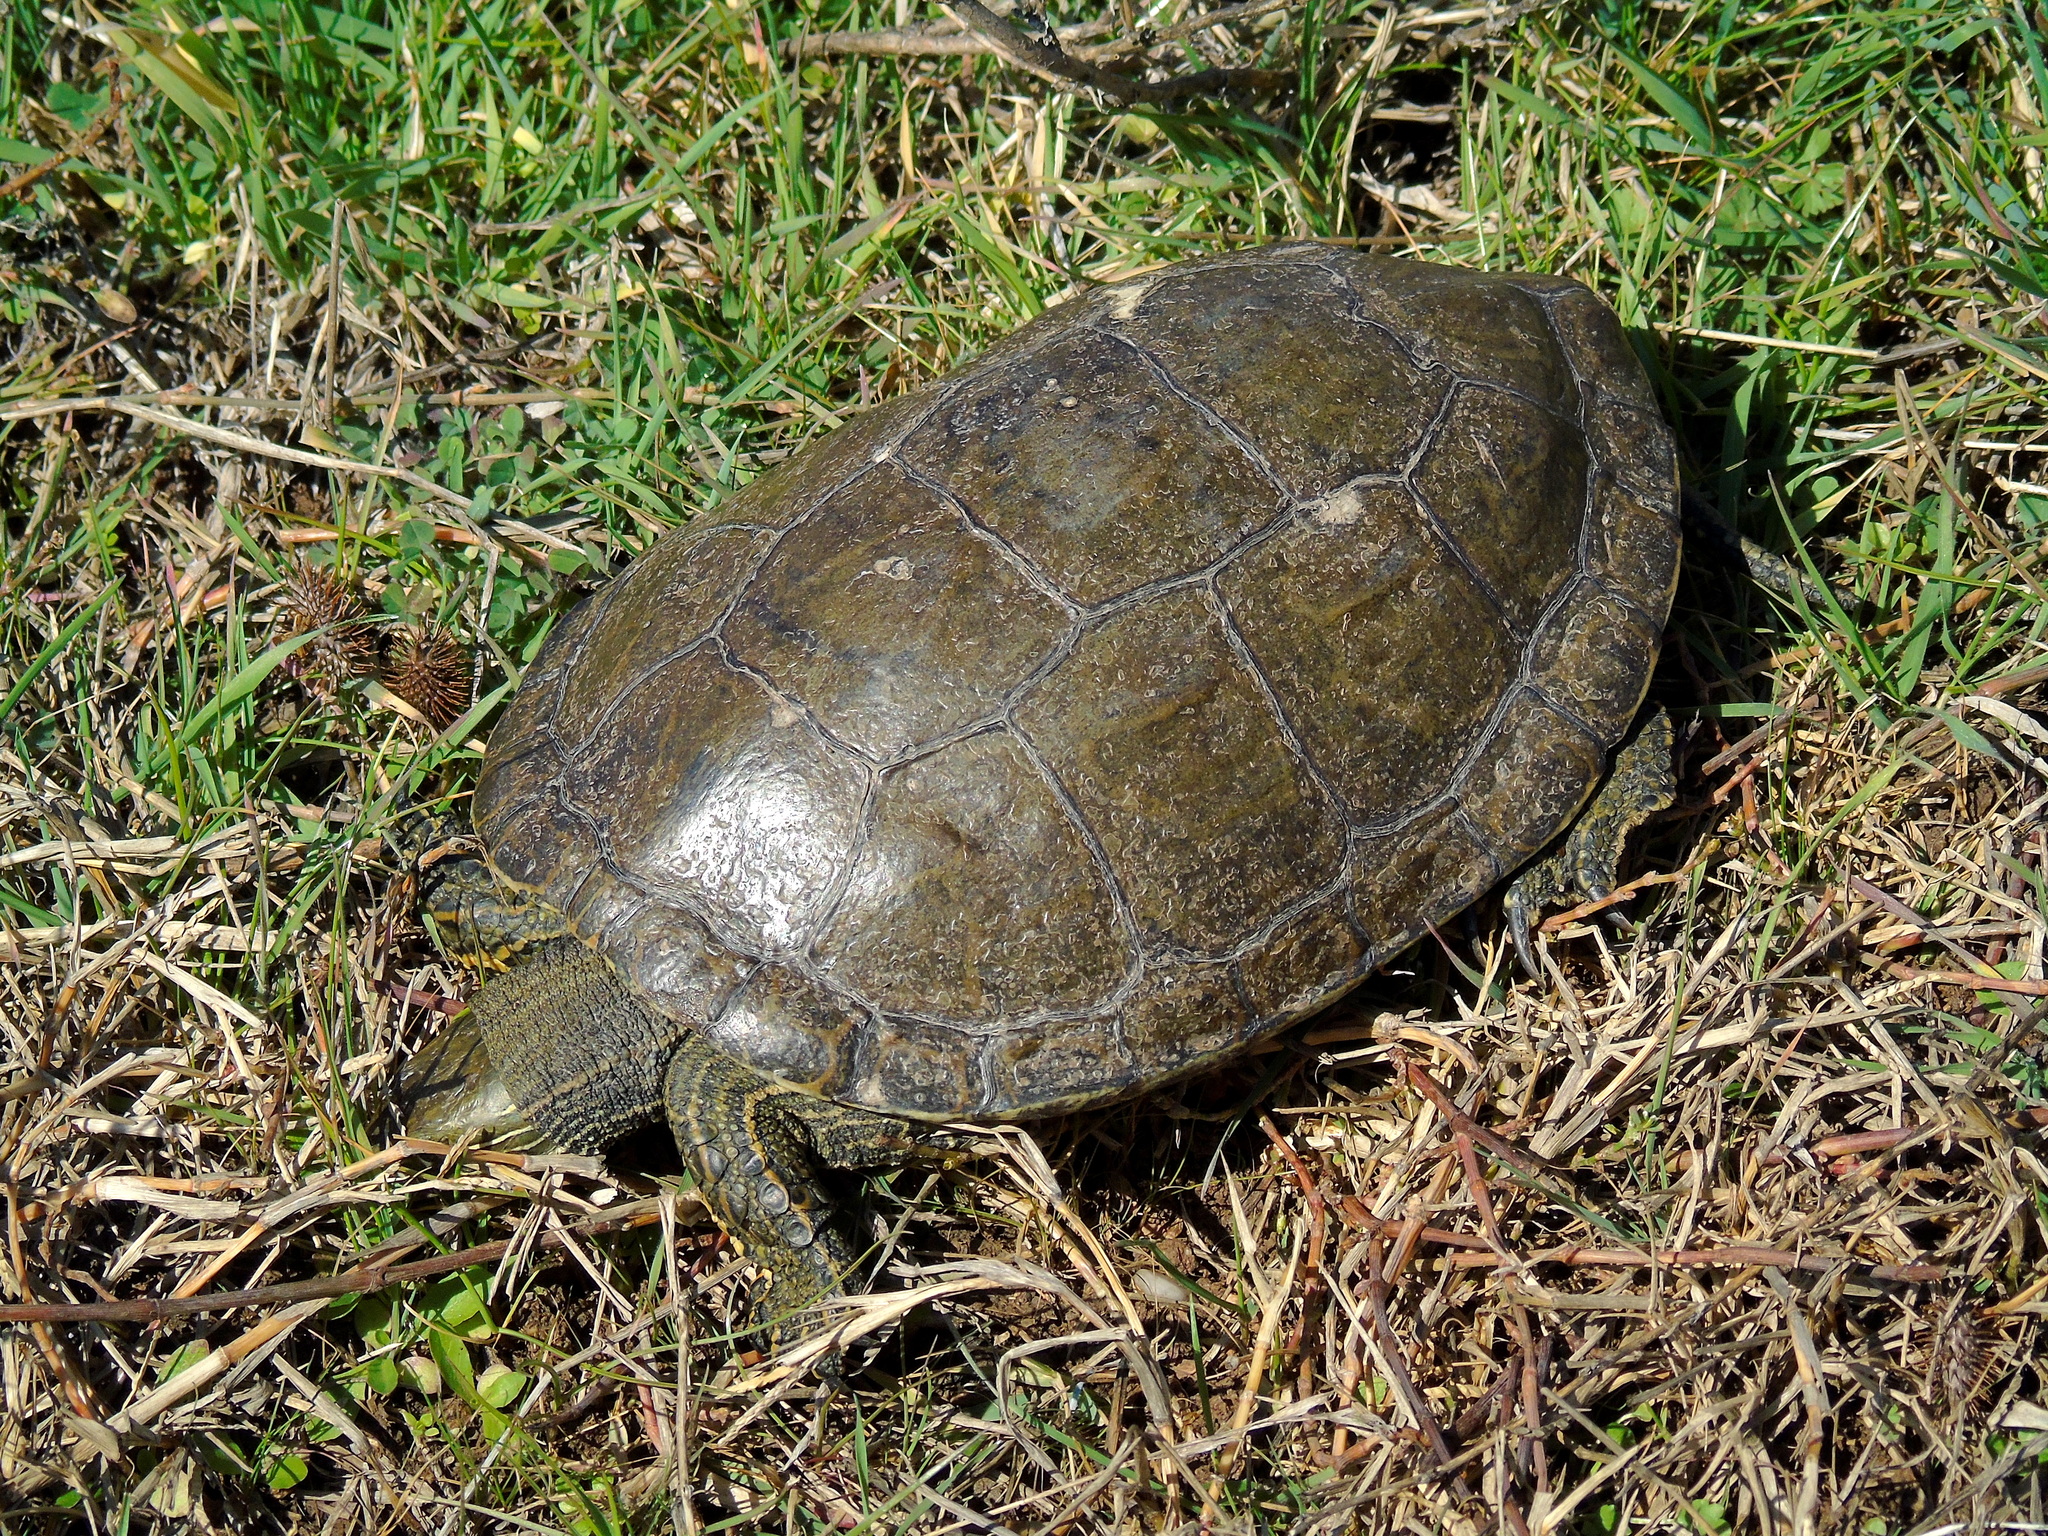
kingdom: Animalia
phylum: Chordata
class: Testudines
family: Geoemydidae
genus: Mauremys
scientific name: Mauremys caspica
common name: Caspian turtle
